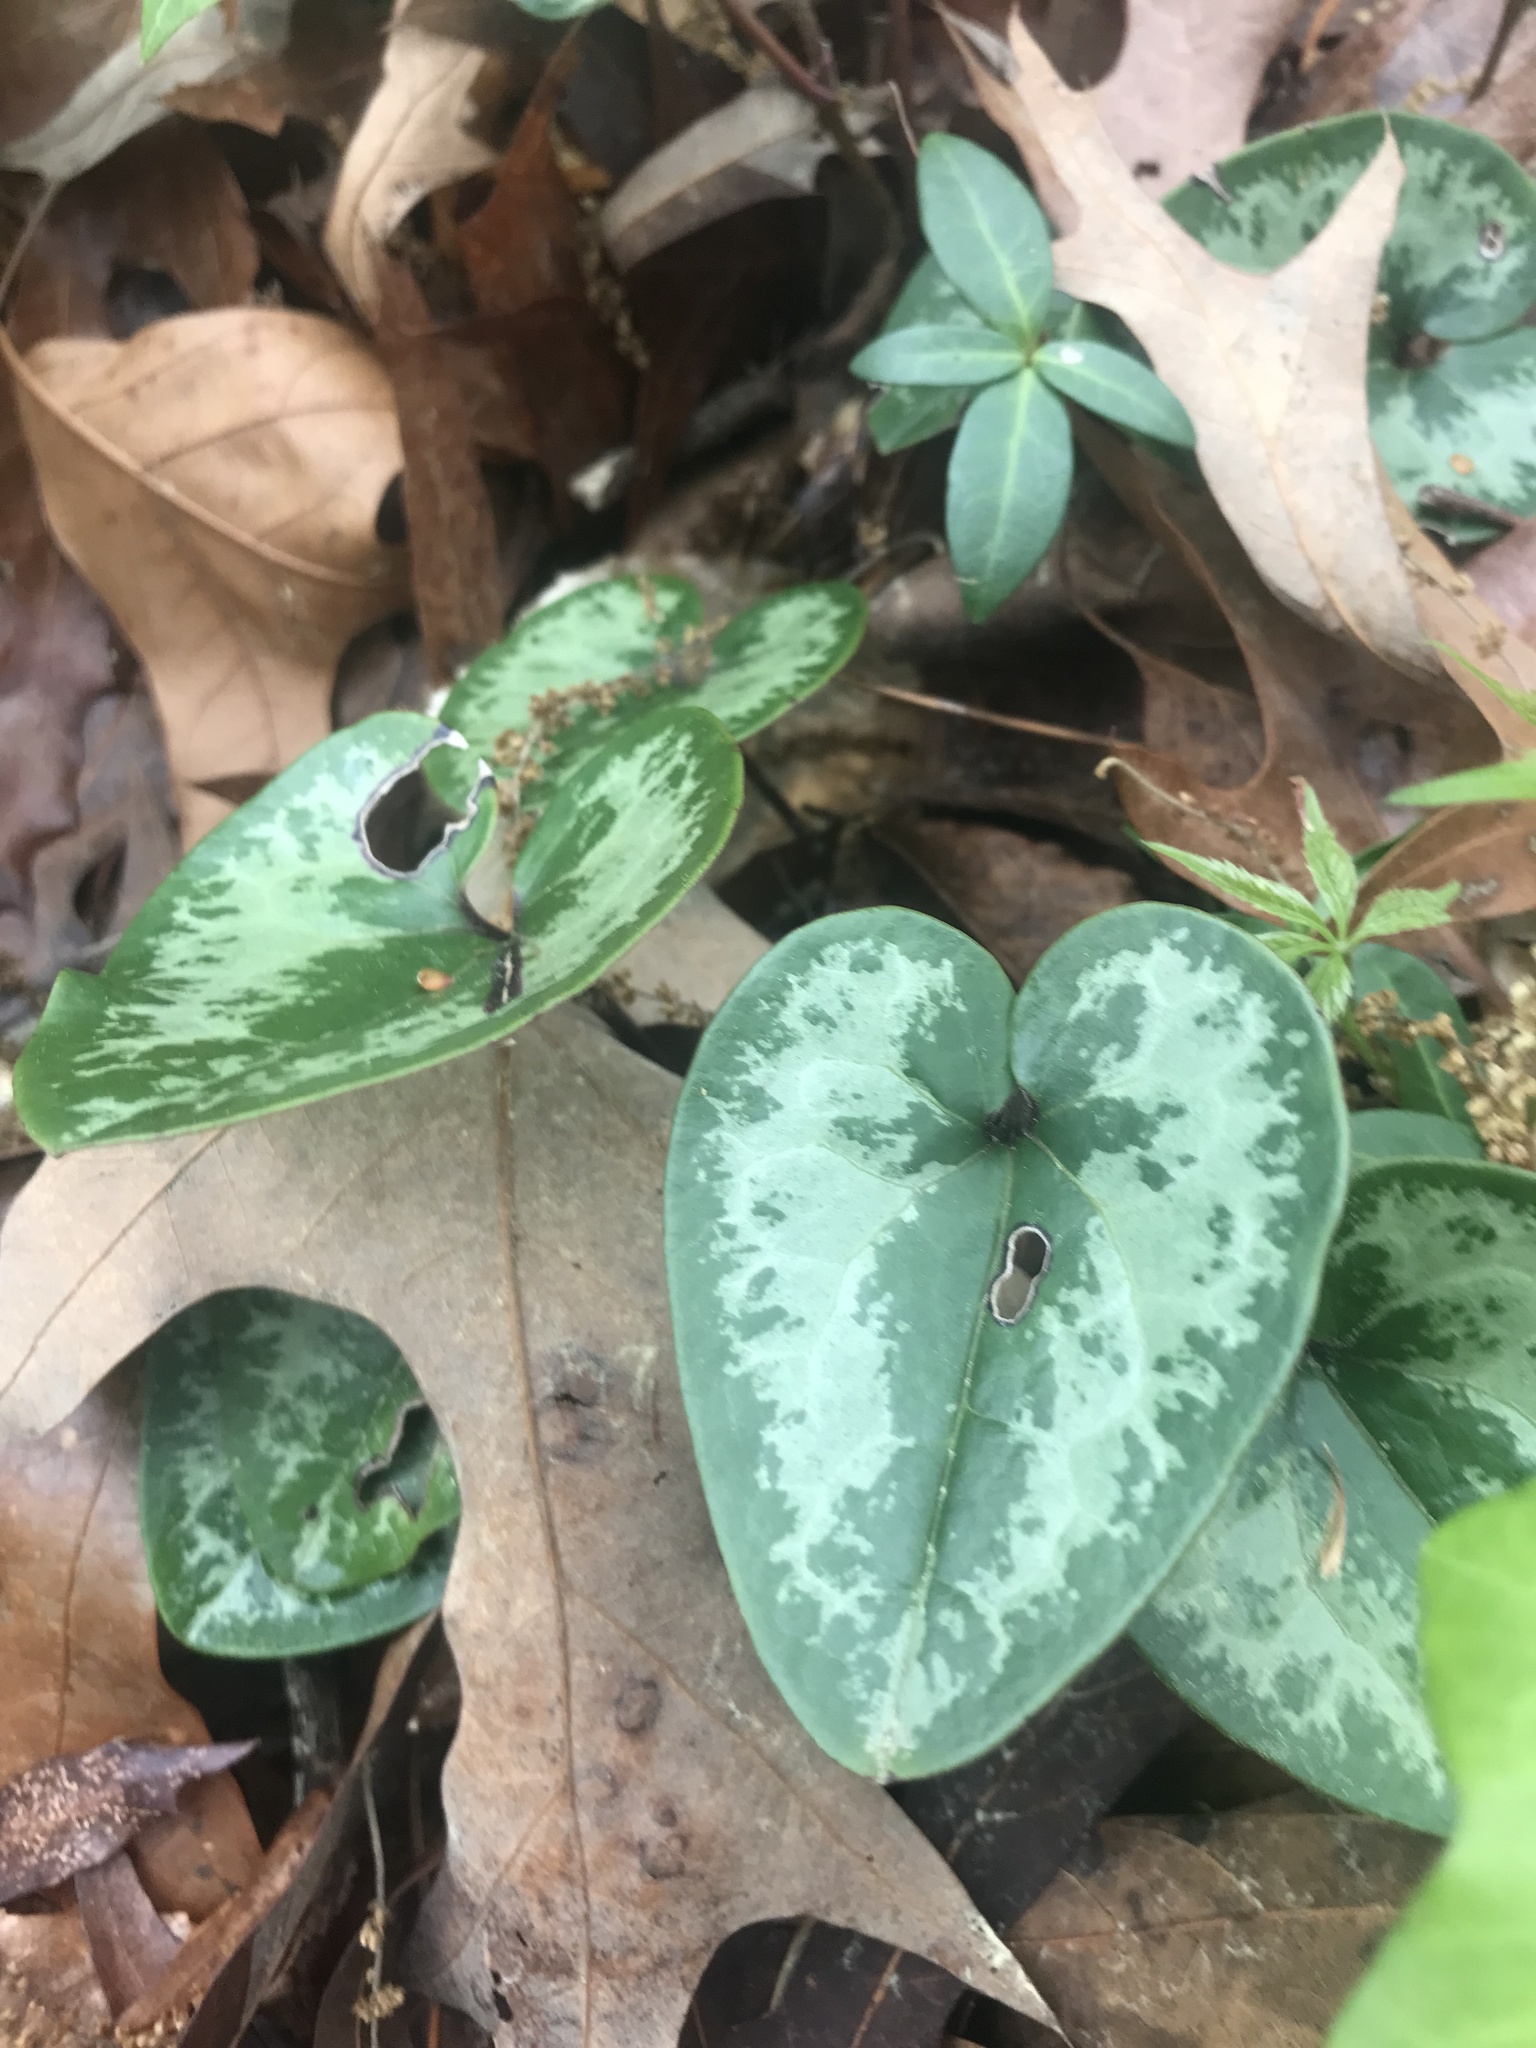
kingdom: Plantae
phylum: Tracheophyta
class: Magnoliopsida
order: Piperales
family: Aristolochiaceae
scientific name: Aristolochiaceae
